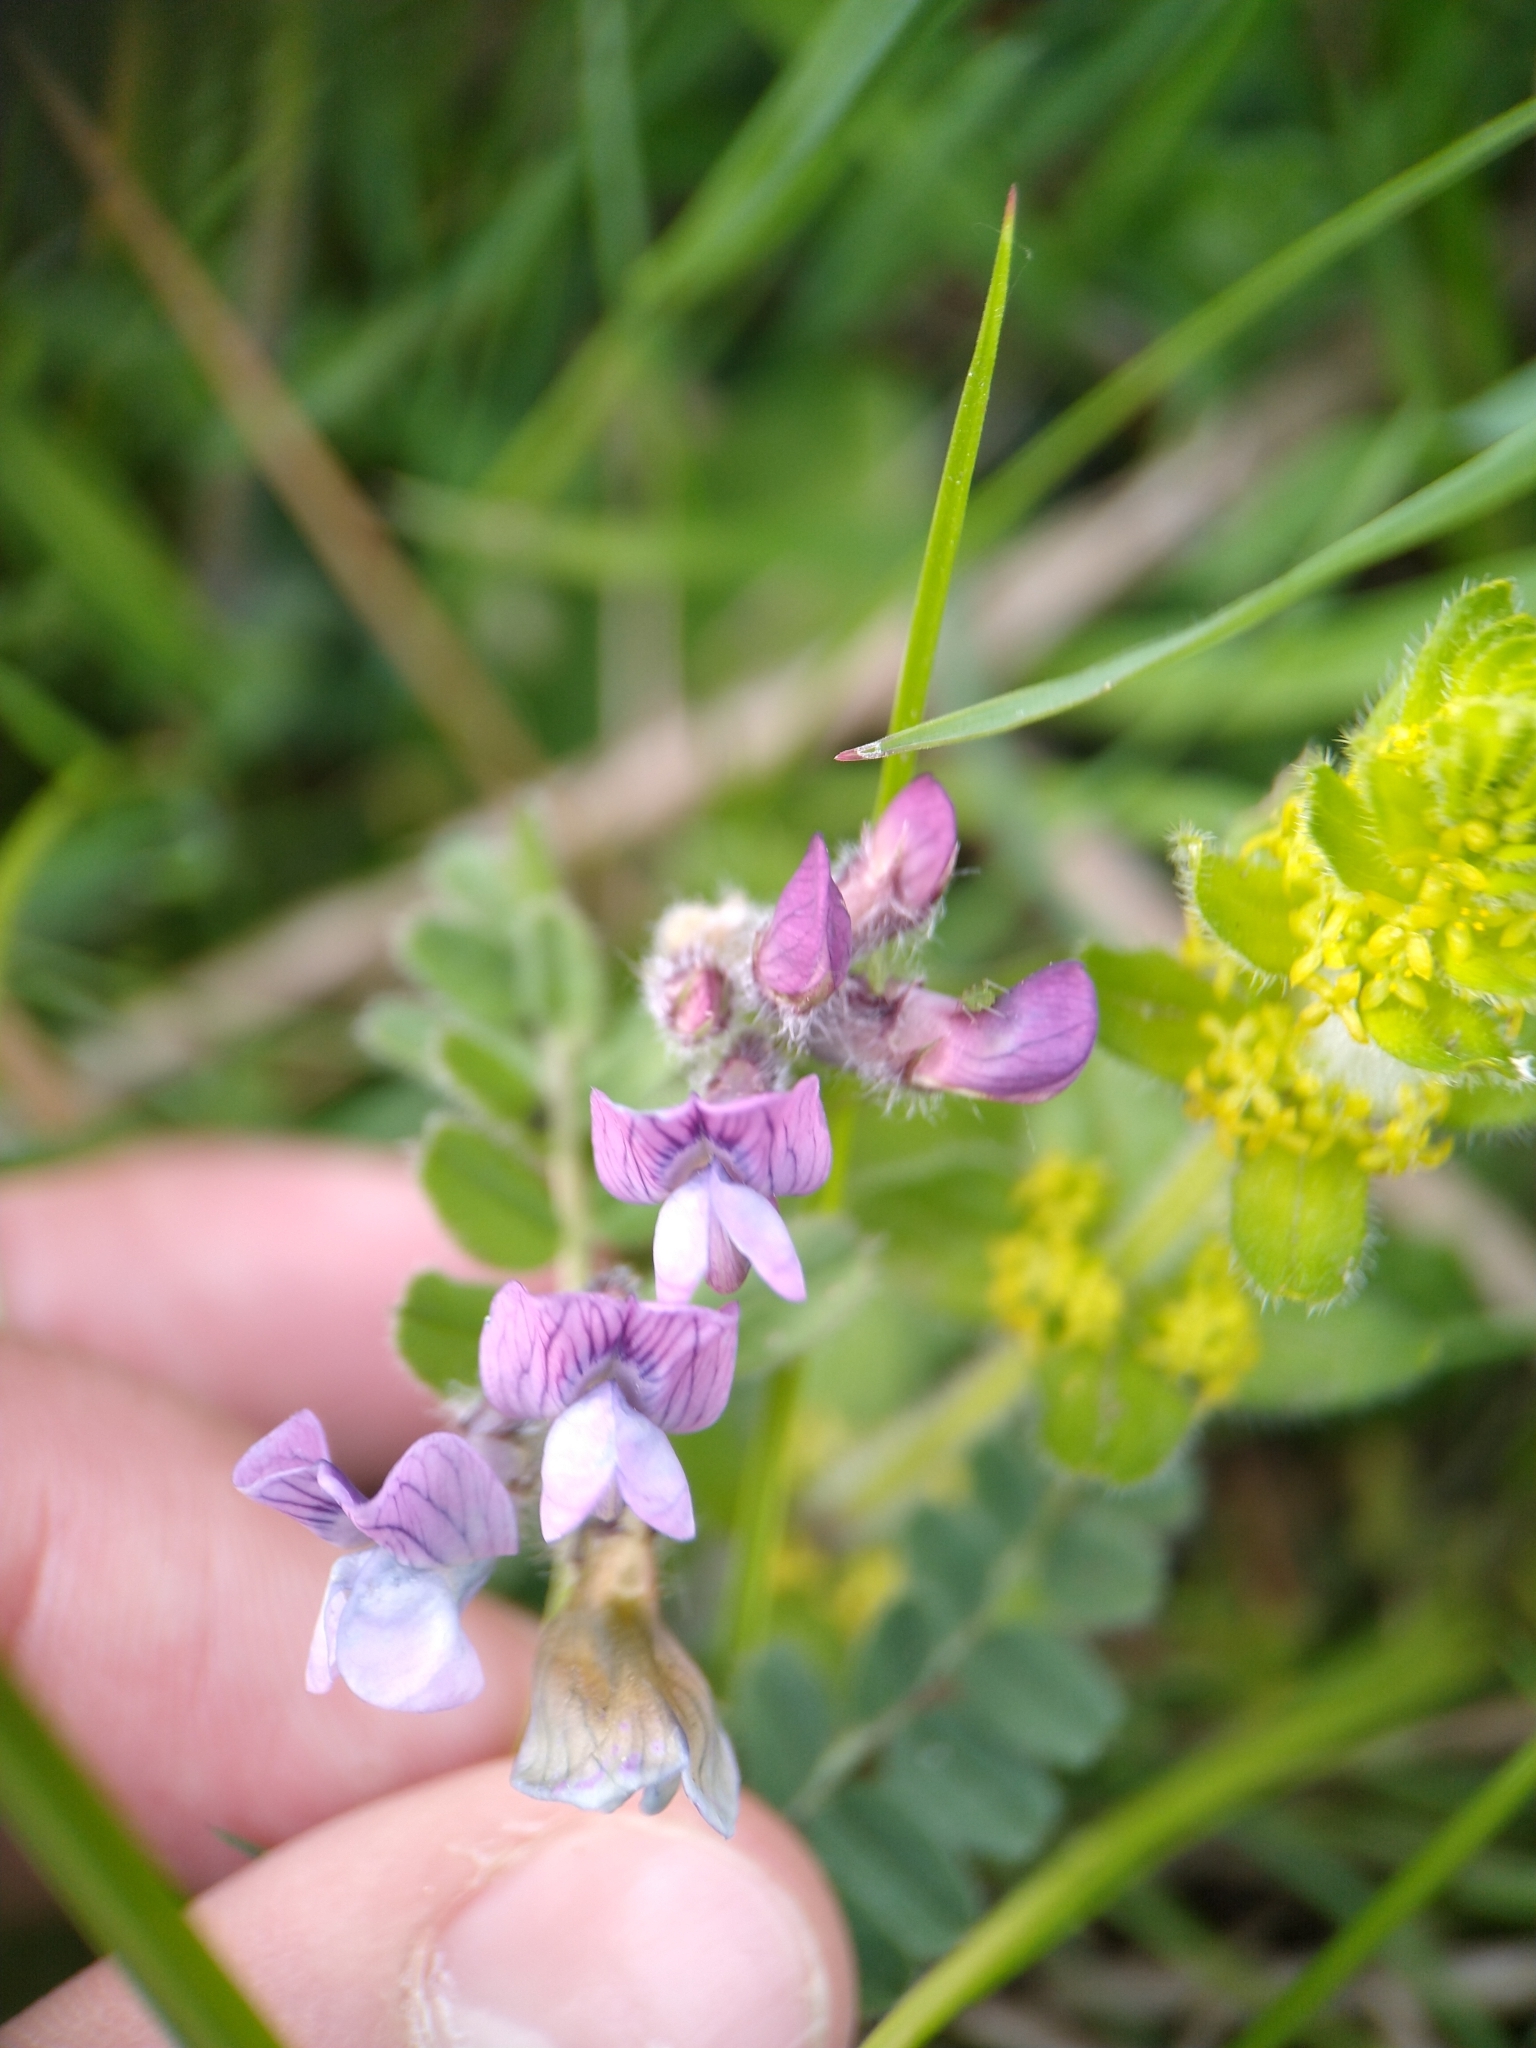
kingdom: Plantae
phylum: Tracheophyta
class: Magnoliopsida
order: Fabales
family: Fabaceae
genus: Vicia
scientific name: Vicia sepium
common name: Bush vetch
